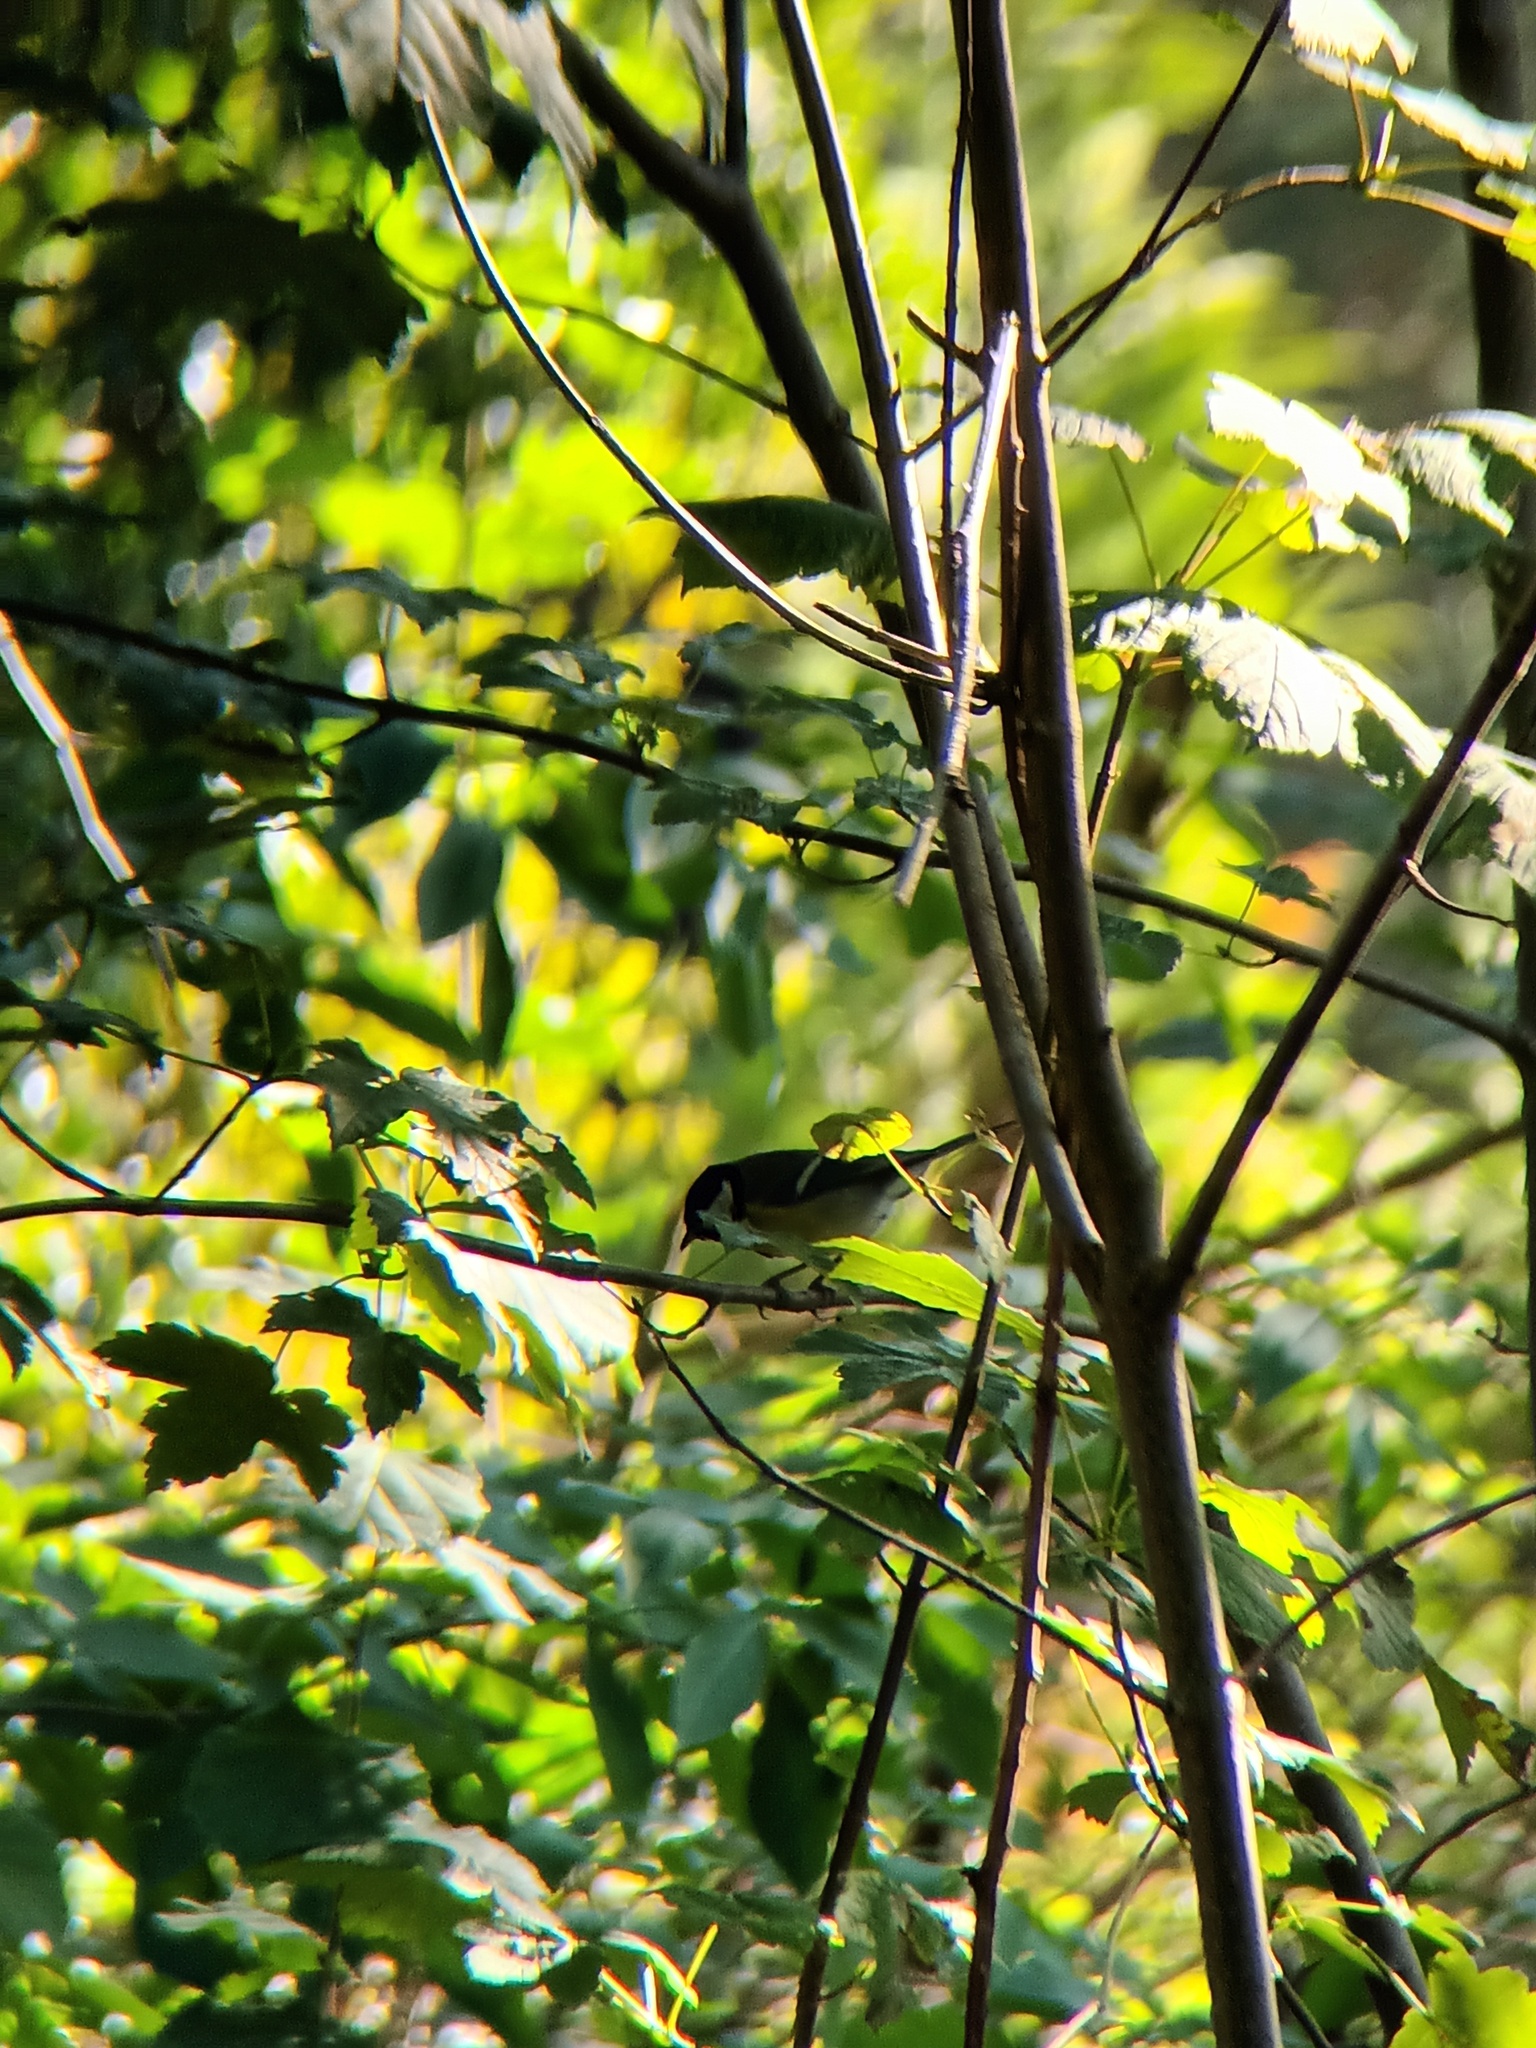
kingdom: Animalia
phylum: Chordata
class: Aves
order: Passeriformes
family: Paridae
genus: Parus
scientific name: Parus major
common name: Great tit
